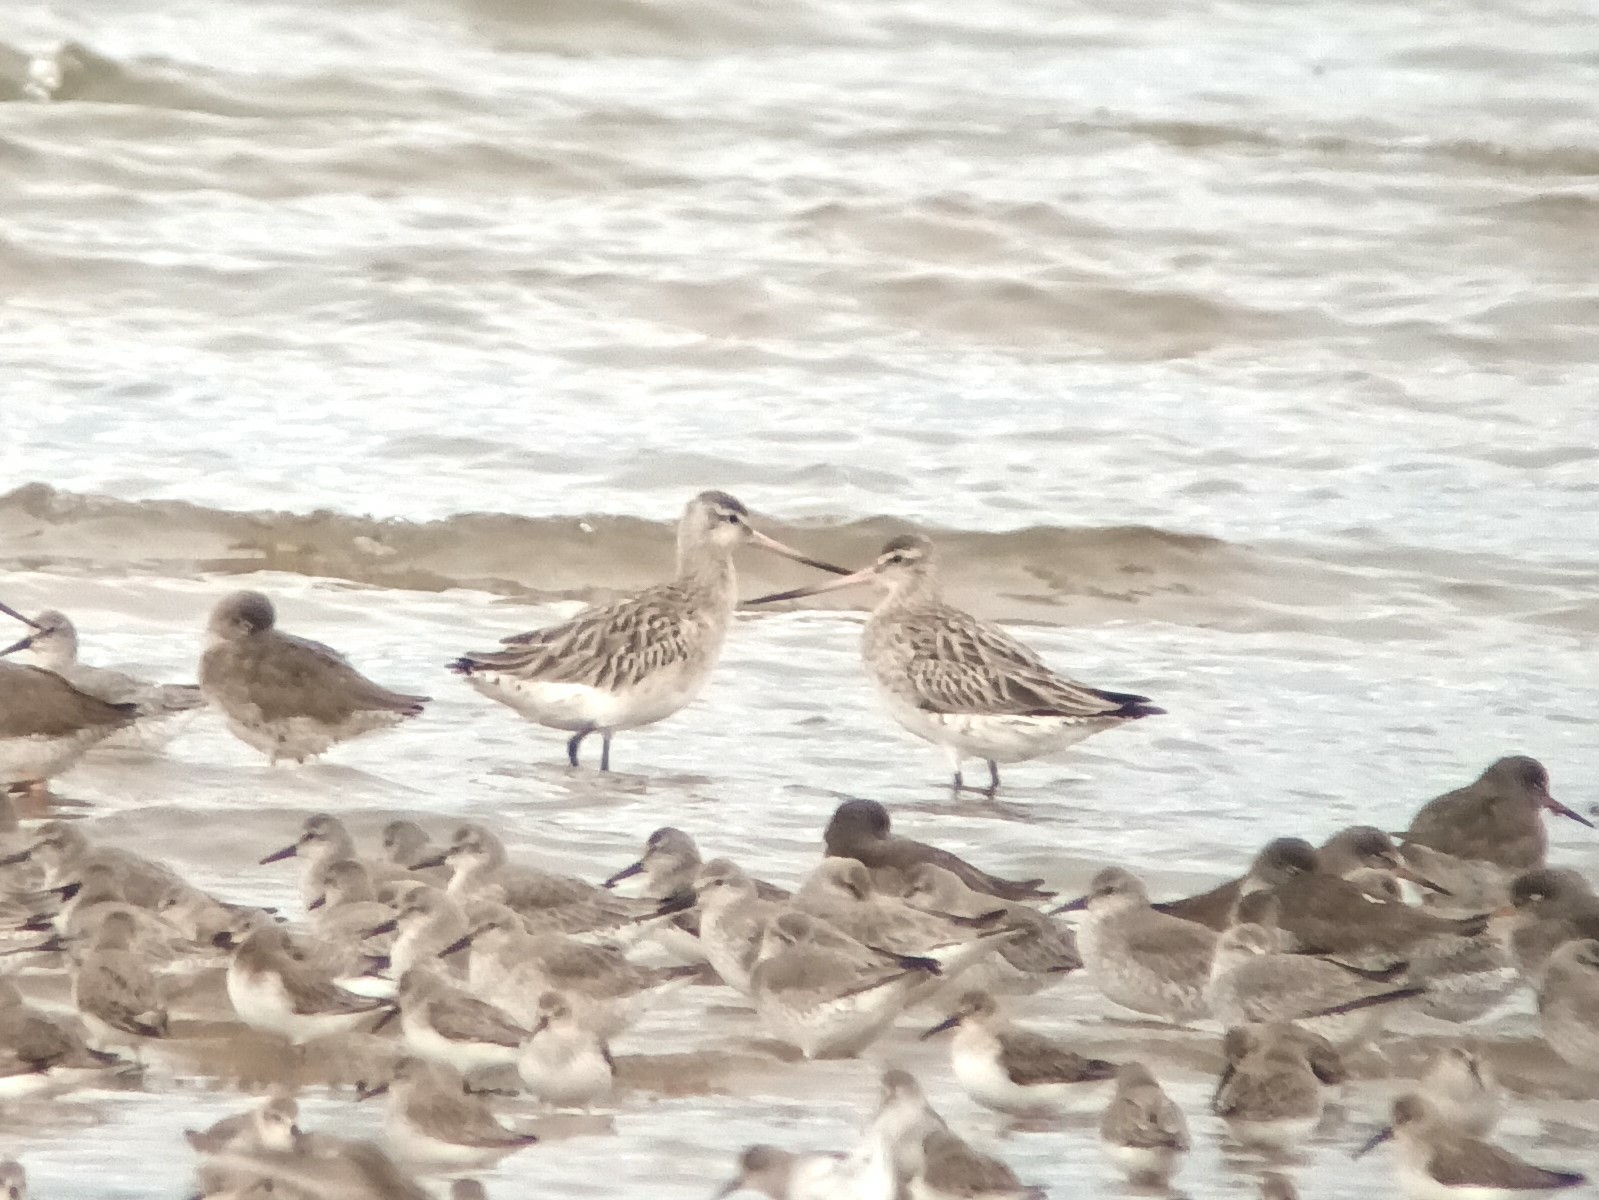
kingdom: Animalia
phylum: Chordata
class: Aves
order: Charadriiformes
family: Scolopacidae
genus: Limosa
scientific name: Limosa lapponica
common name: Bar-tailed godwit
